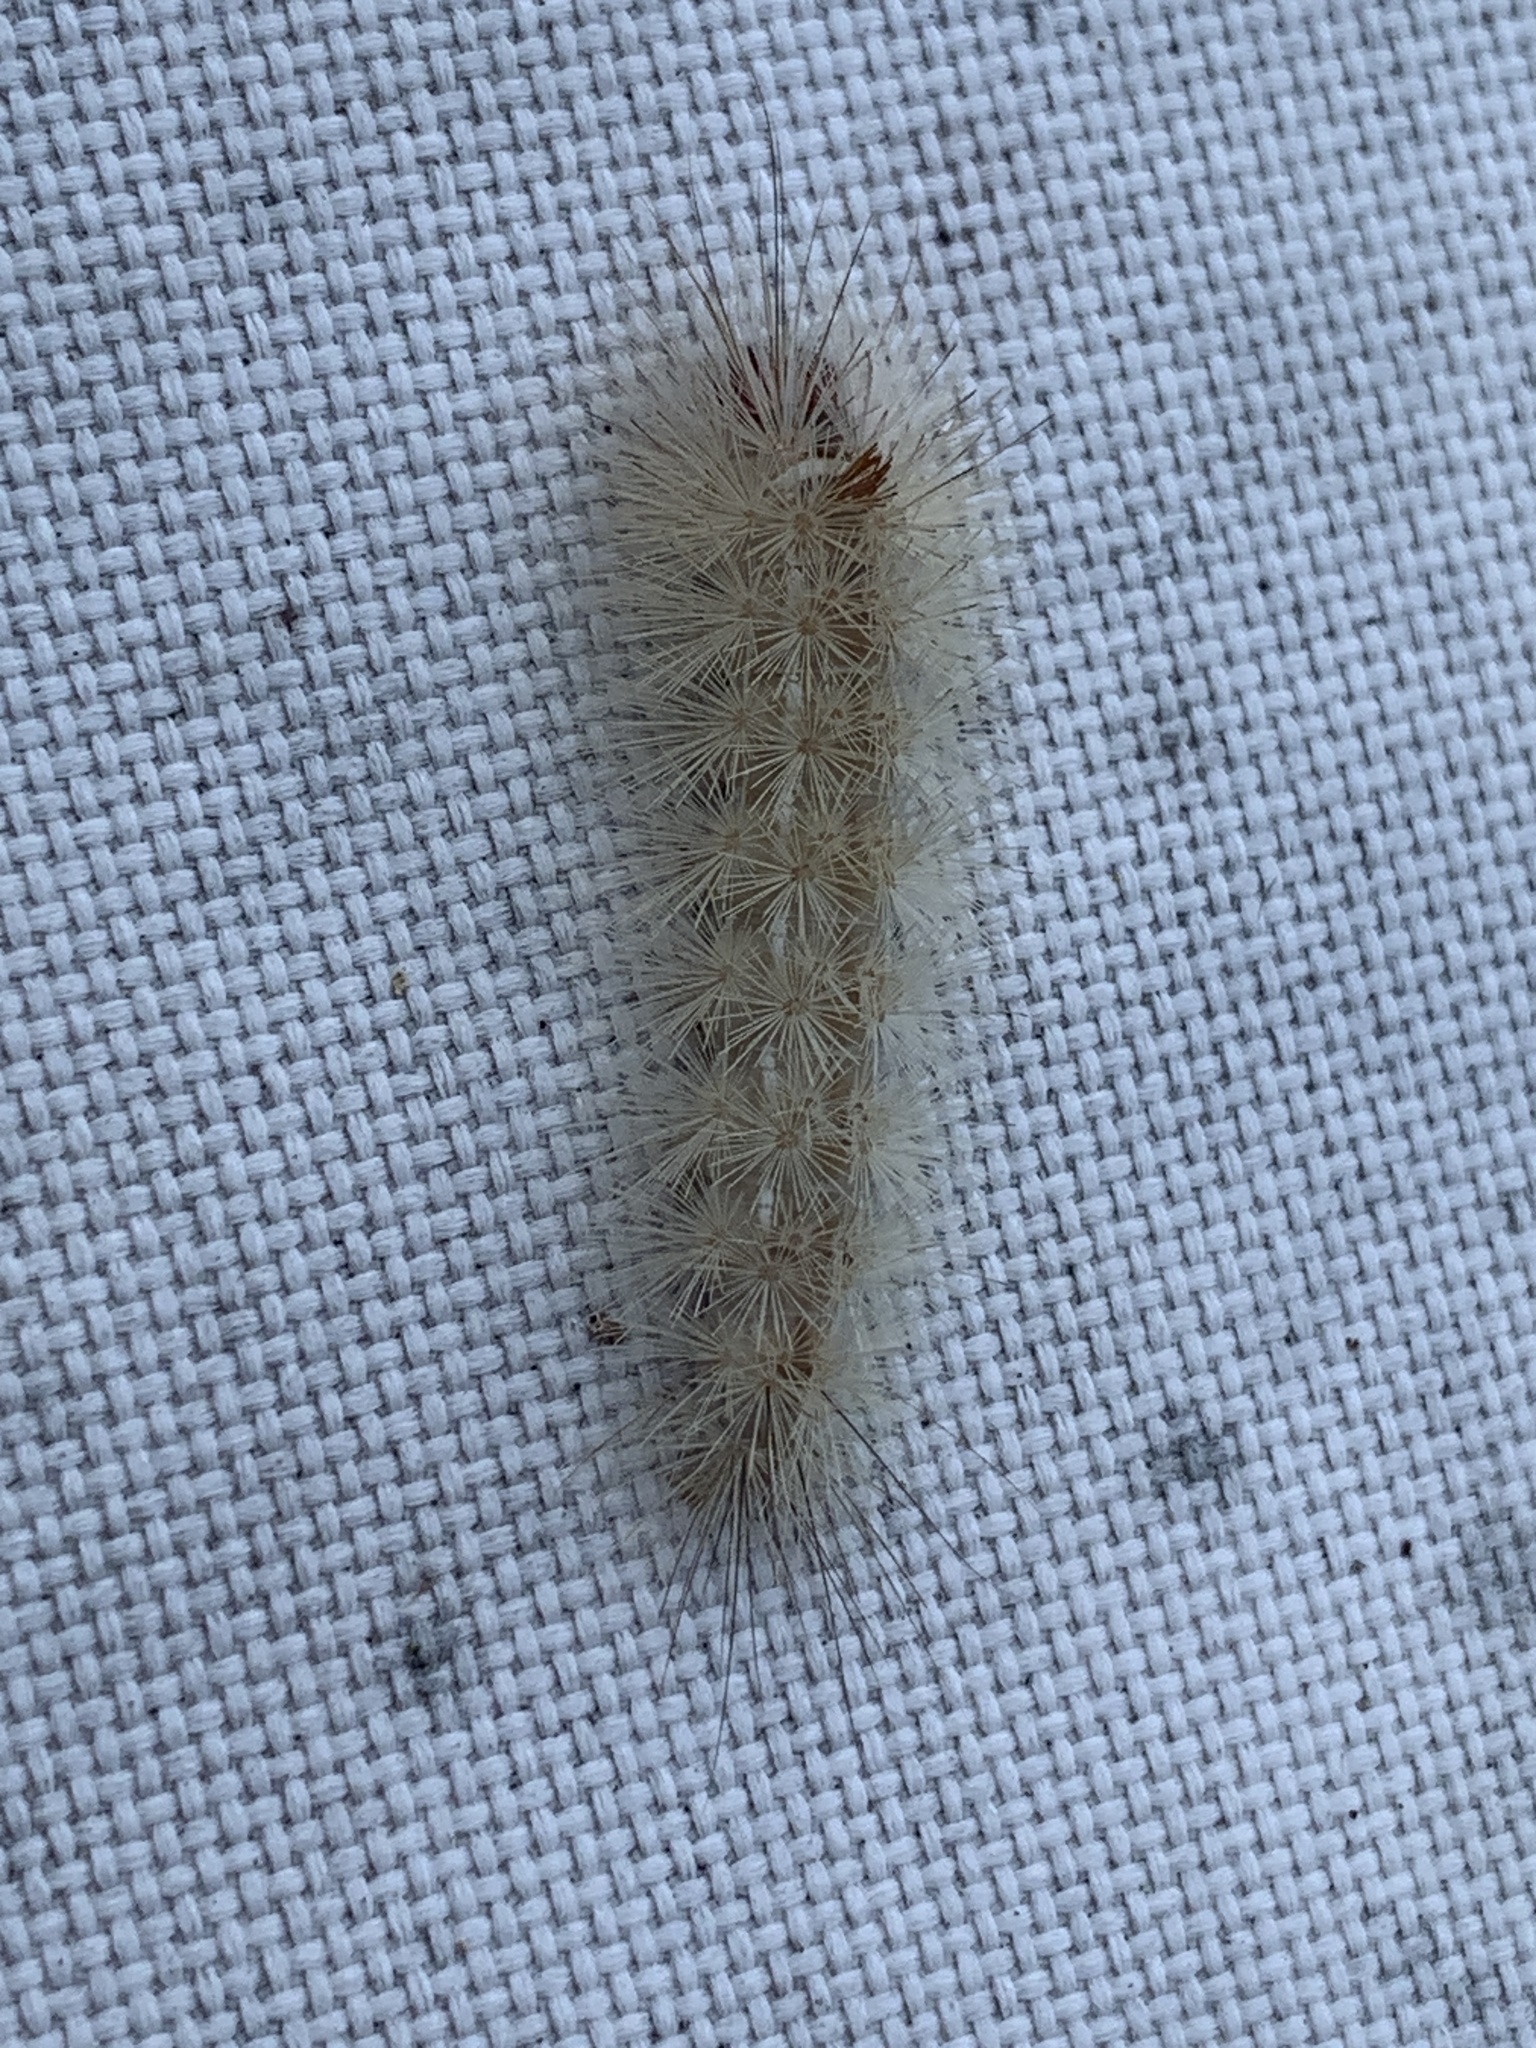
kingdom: Animalia
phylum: Arthropoda
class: Insecta
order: Lepidoptera
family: Erebidae
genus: Lymire
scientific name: Lymire edwardsii
